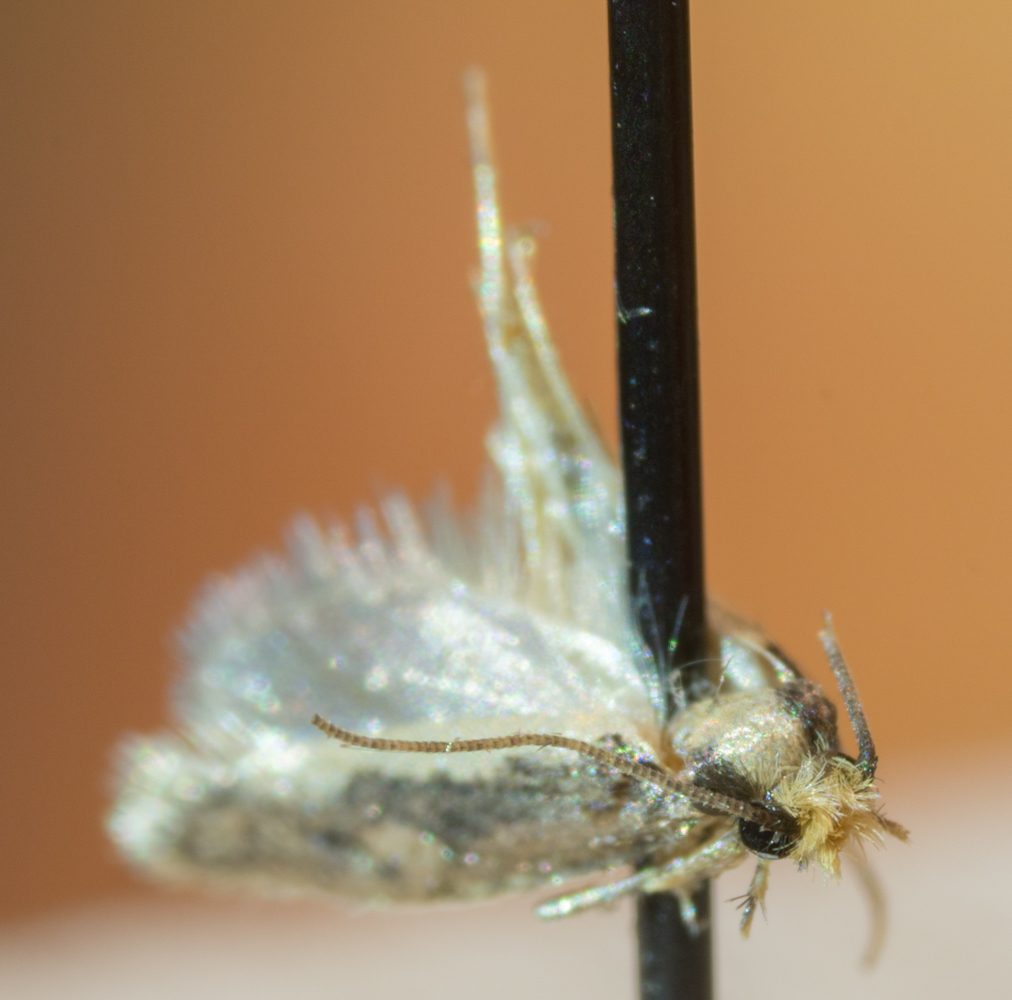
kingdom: Animalia
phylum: Arthropoda
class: Insecta
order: Lepidoptera
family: Tineidae
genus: Monopis
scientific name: Monopis crocicapitella
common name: Moth
